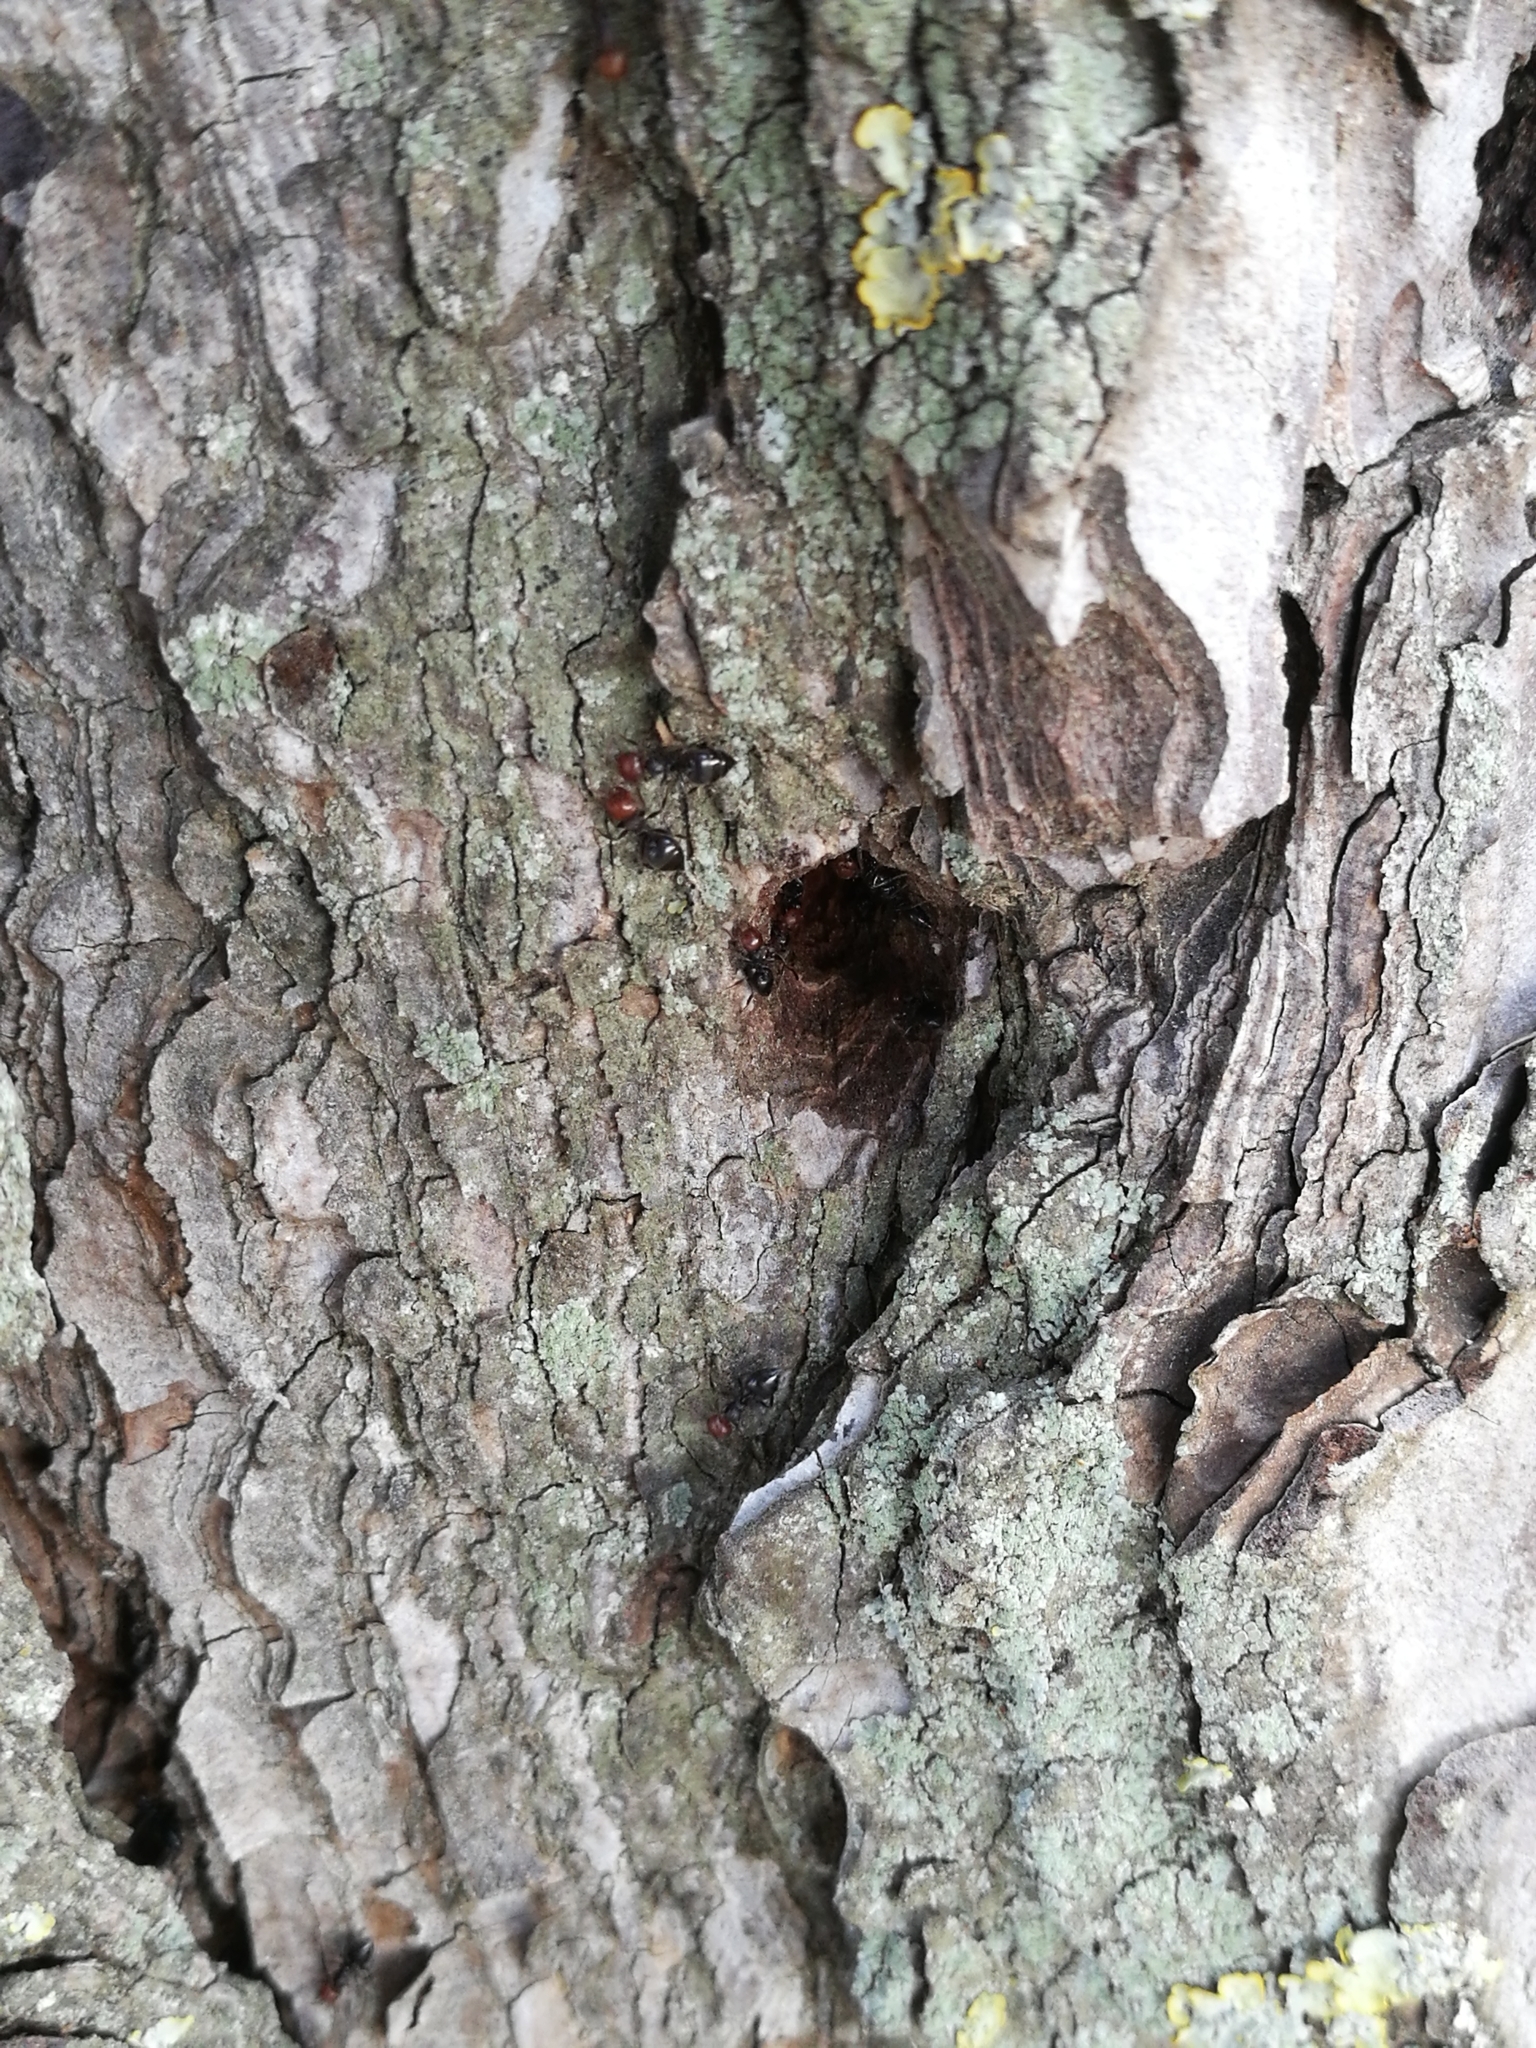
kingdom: Animalia
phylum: Arthropoda
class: Insecta
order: Hymenoptera
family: Formicidae
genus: Crematogaster
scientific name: Crematogaster scutellaris
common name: Fourmi du liège
